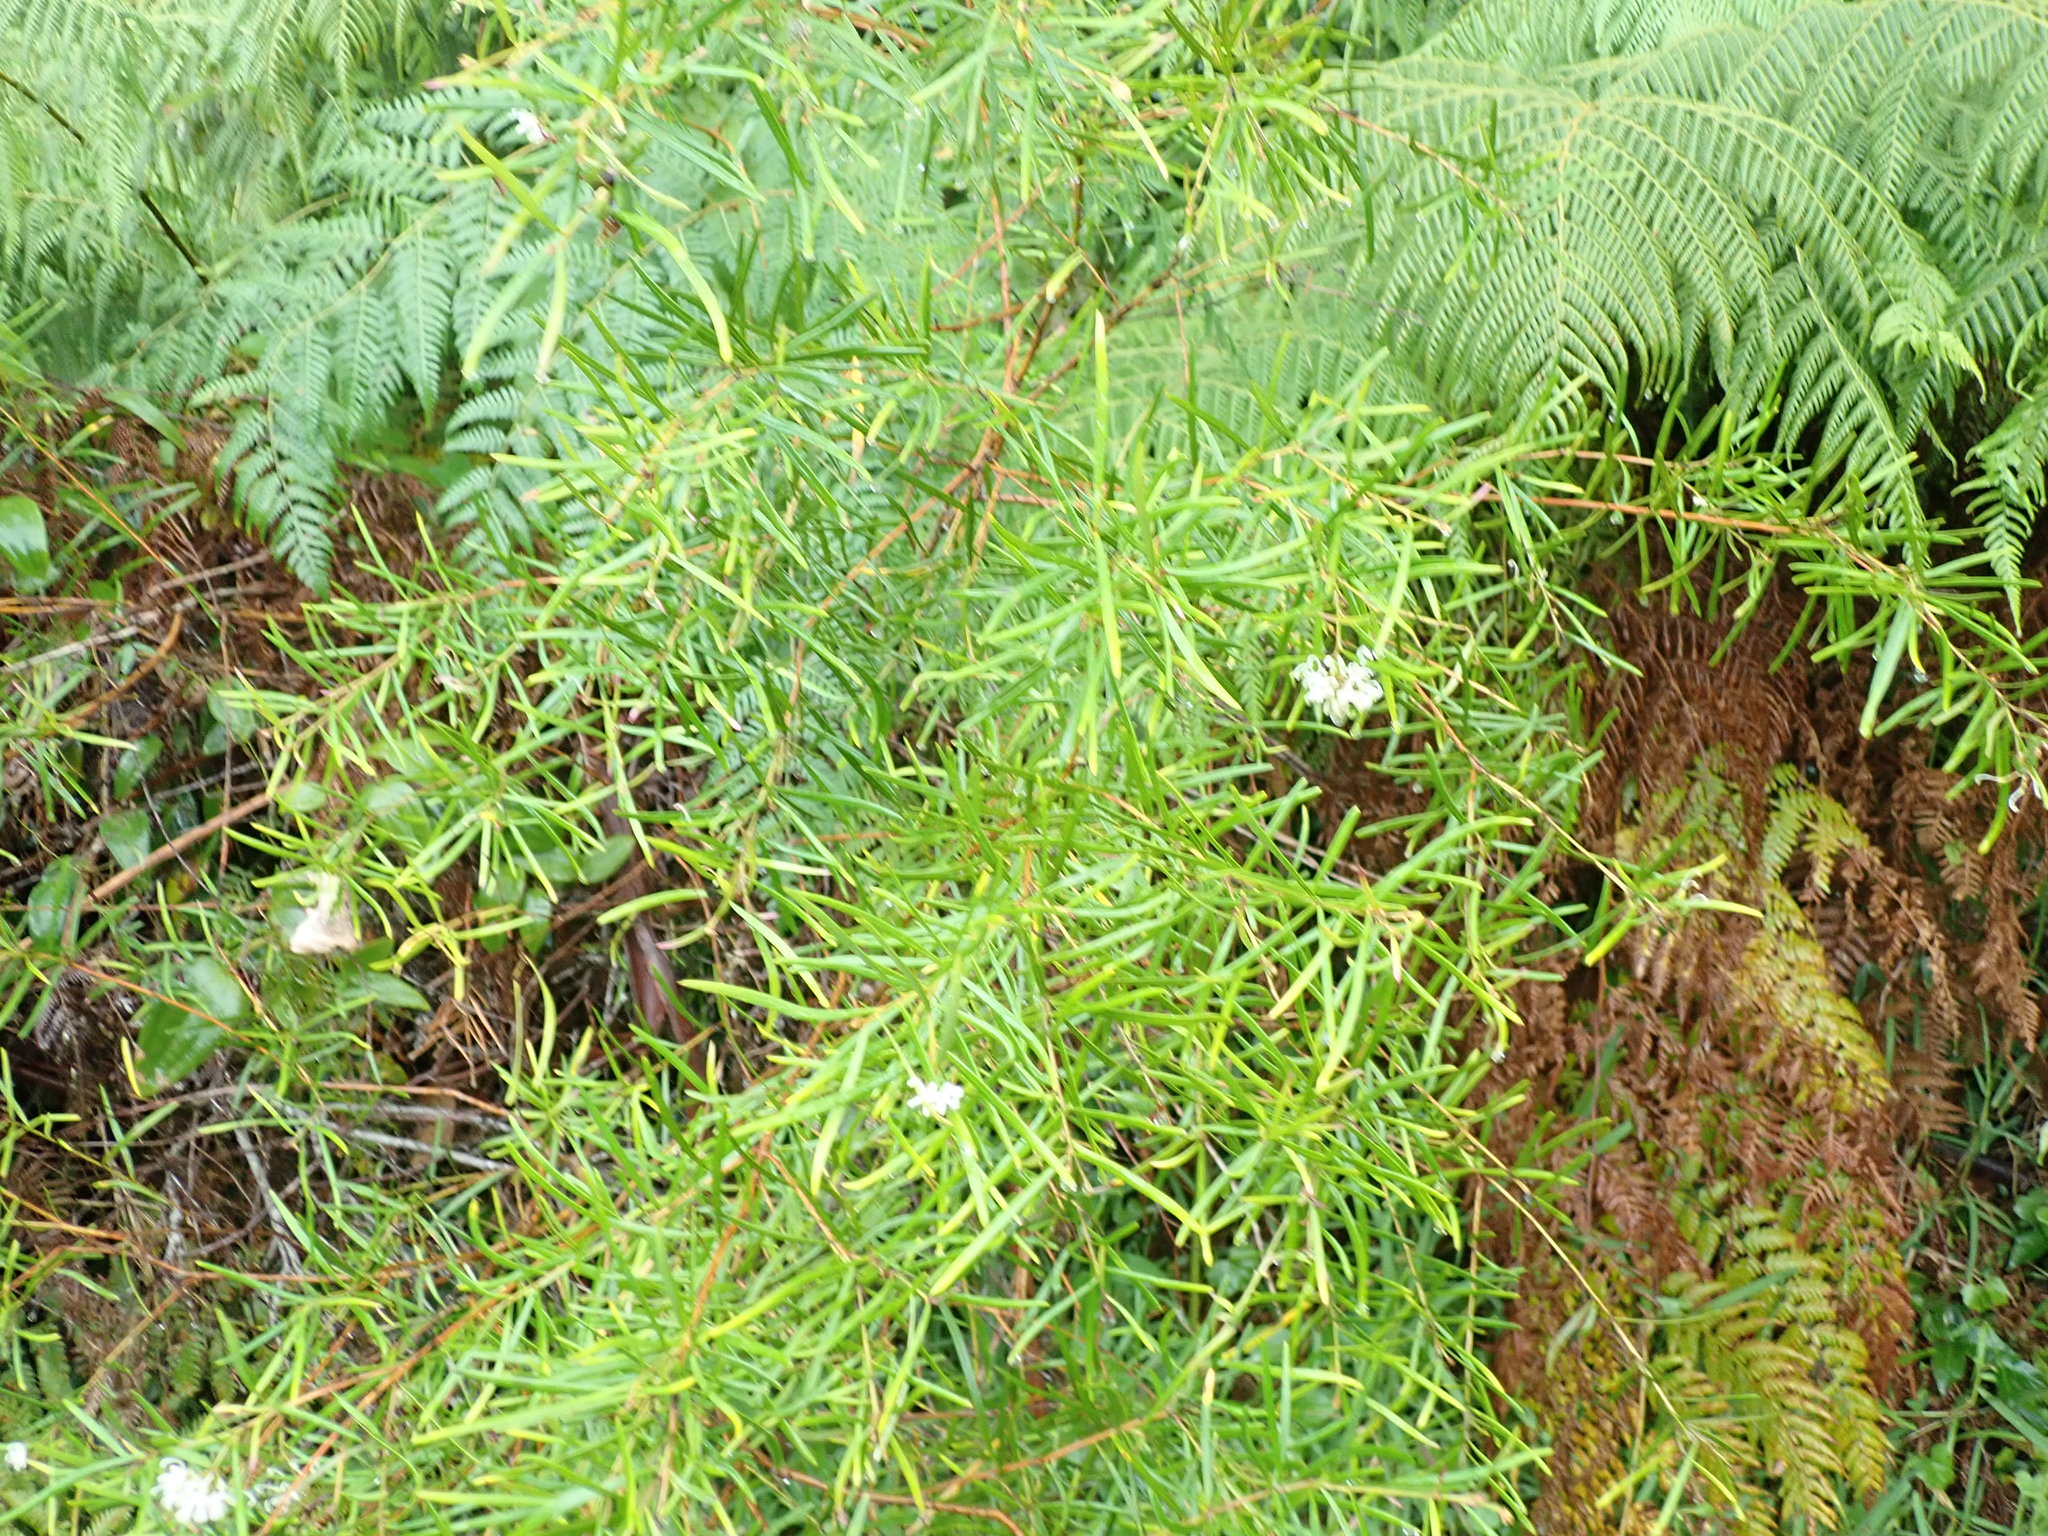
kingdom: Plantae
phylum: Tracheophyta
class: Magnoliopsida
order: Proteales
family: Proteaceae
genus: Grevillea
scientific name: Grevillea linearifolia
